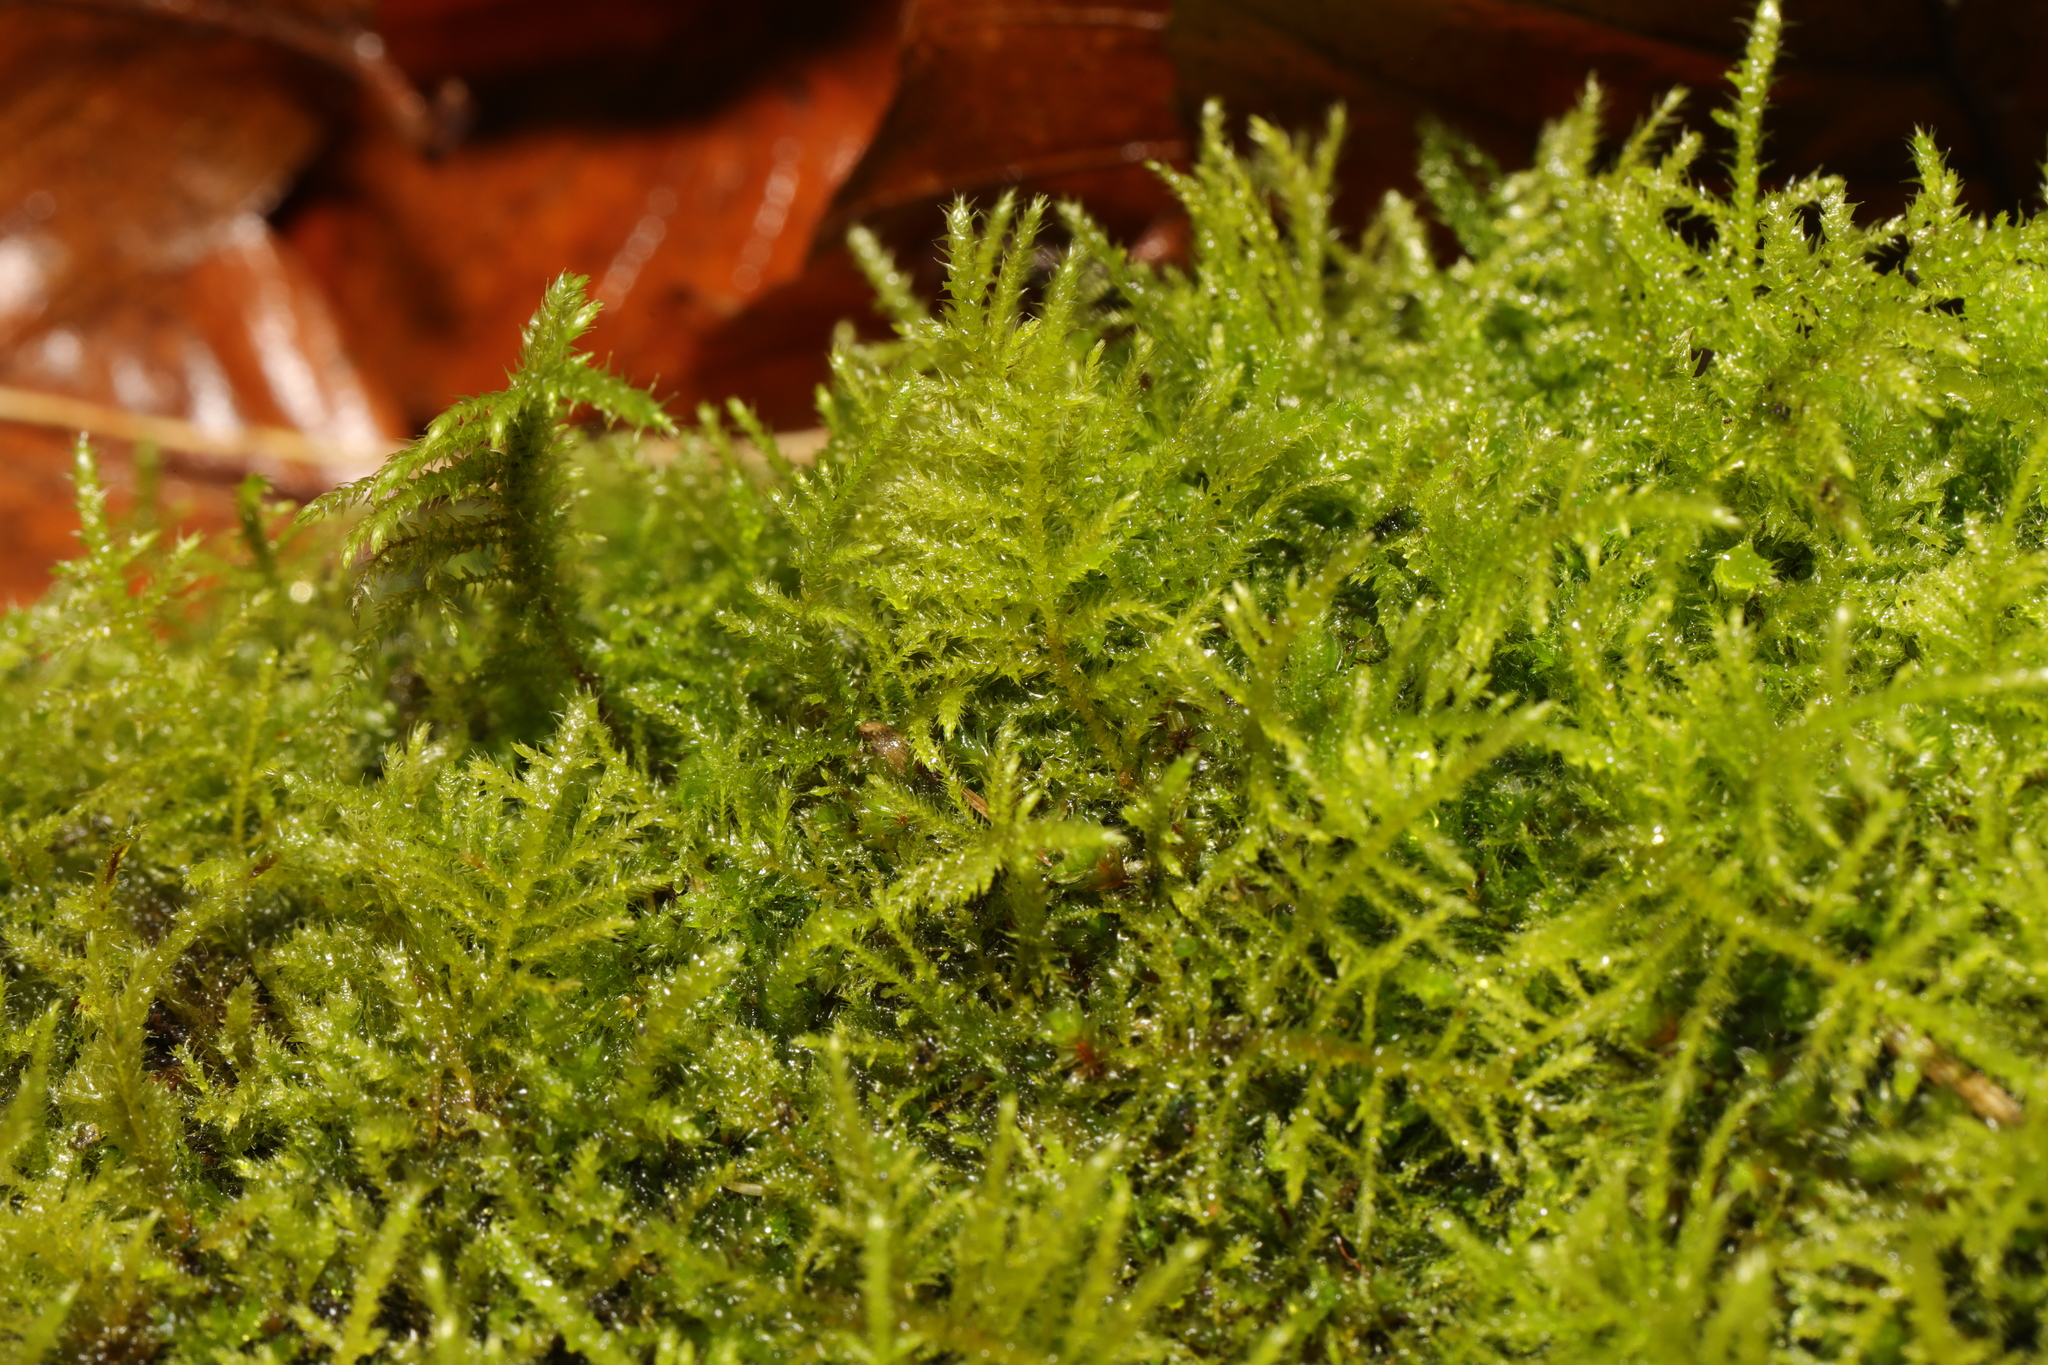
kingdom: Plantae
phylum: Bryophyta
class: Bryopsida
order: Hypnales
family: Brachytheciaceae
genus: Kindbergia
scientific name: Kindbergia praelonga
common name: Slender beaked moss
